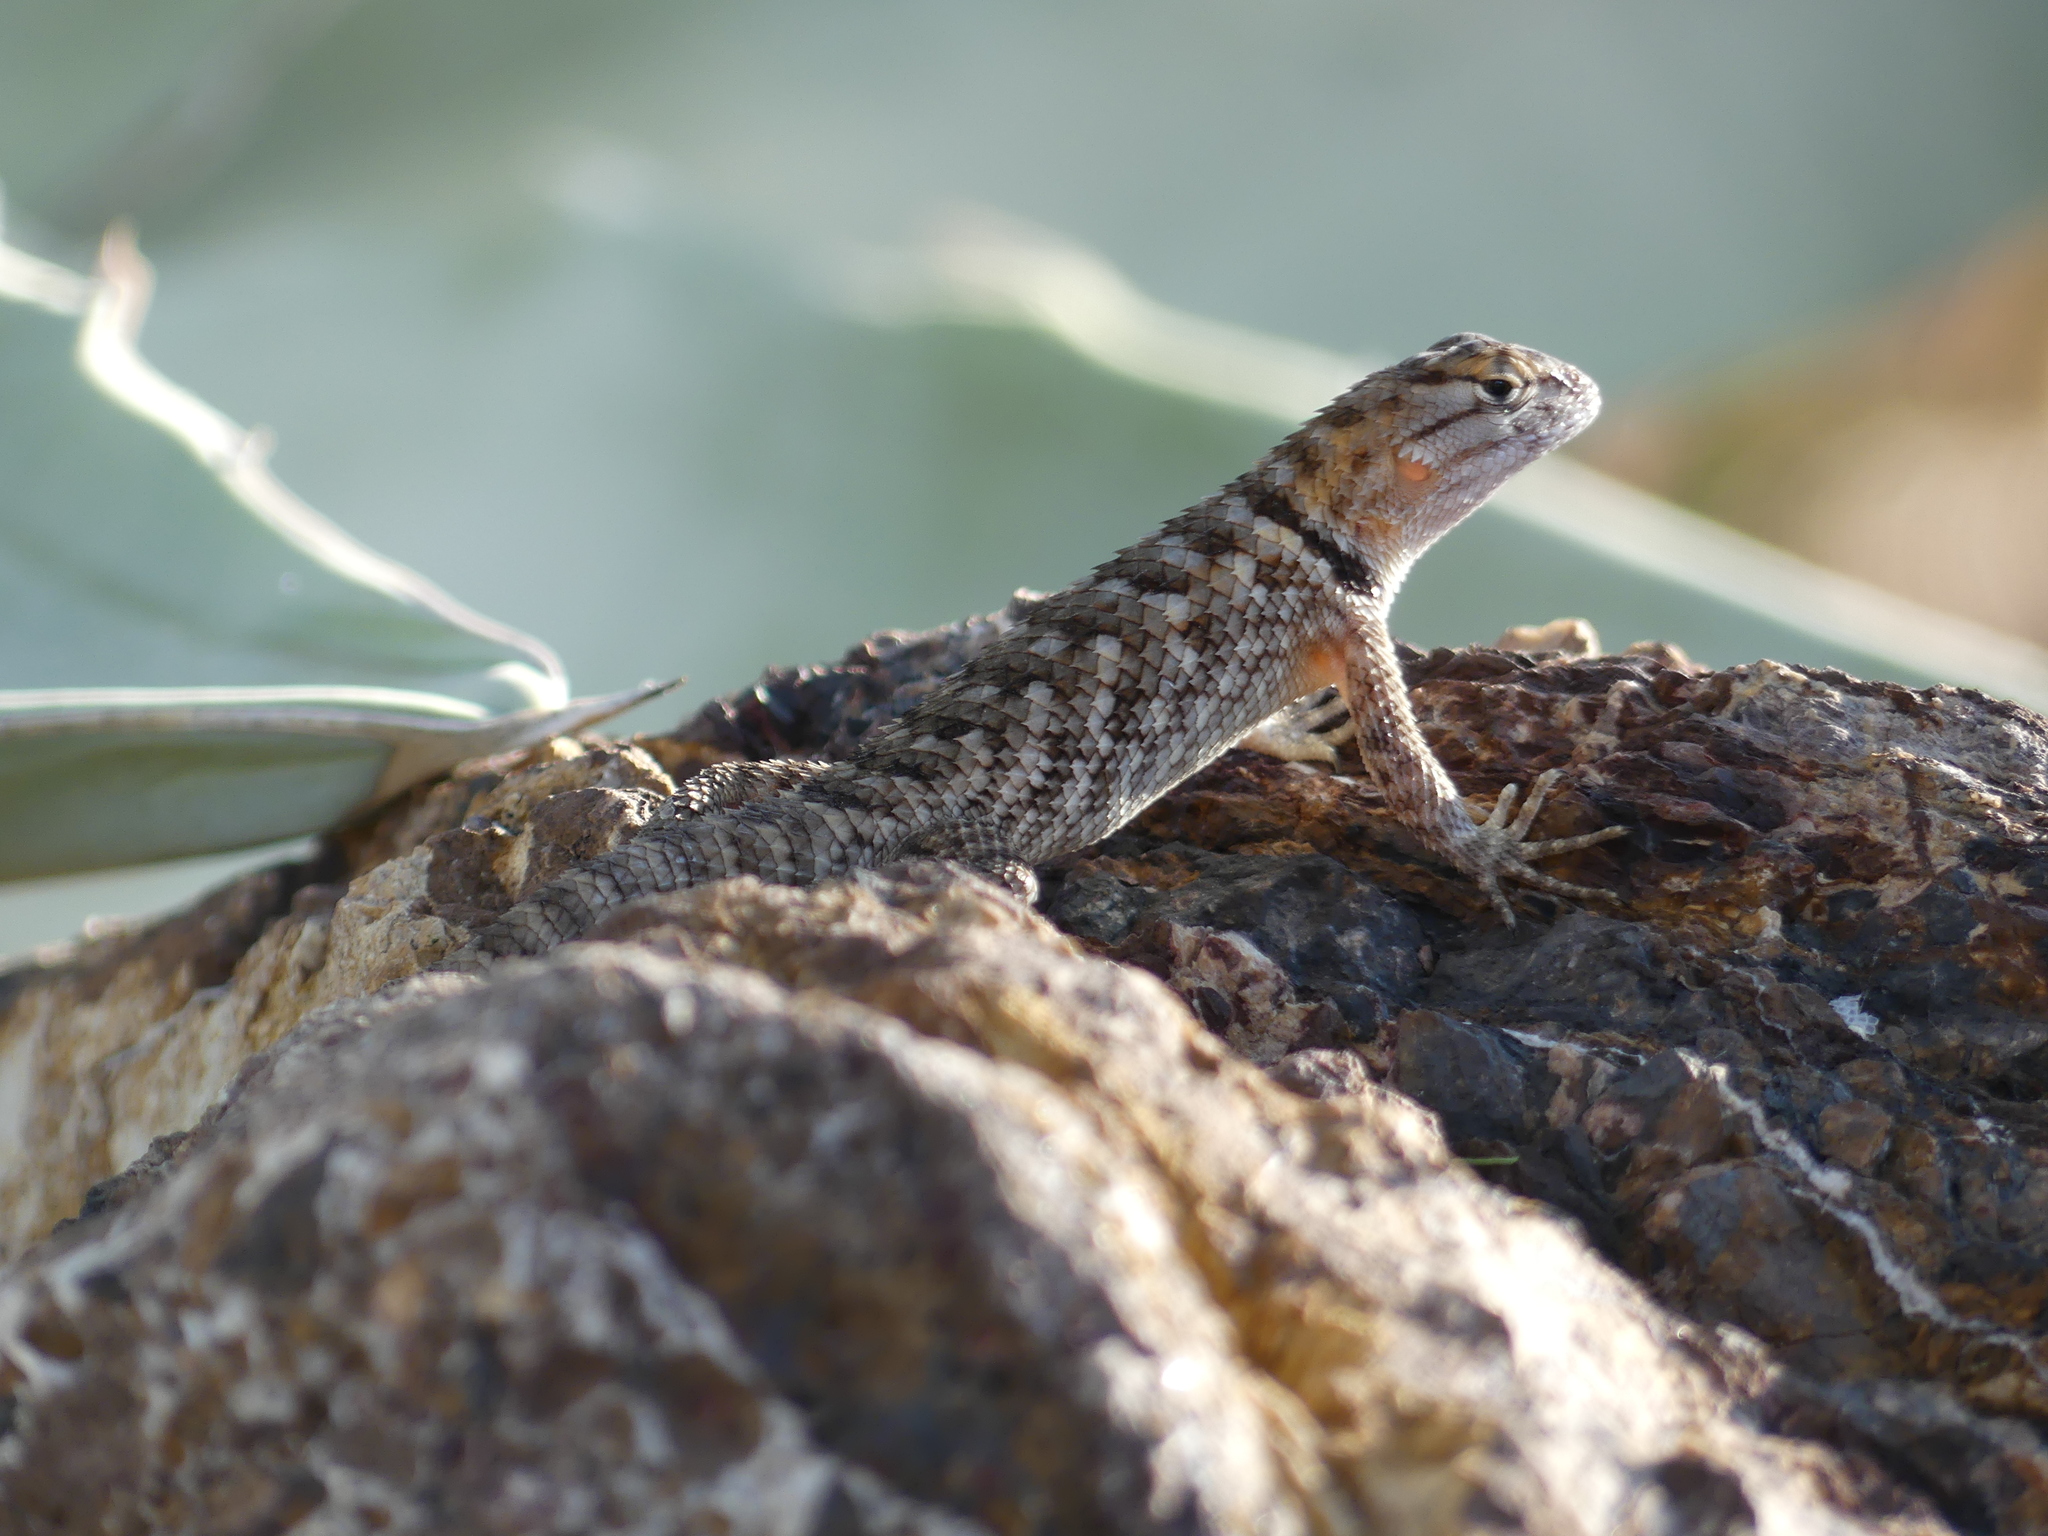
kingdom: Animalia
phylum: Chordata
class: Squamata
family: Phrynosomatidae
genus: Sceloporus
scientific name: Sceloporus magister
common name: Desert spiny lizard
